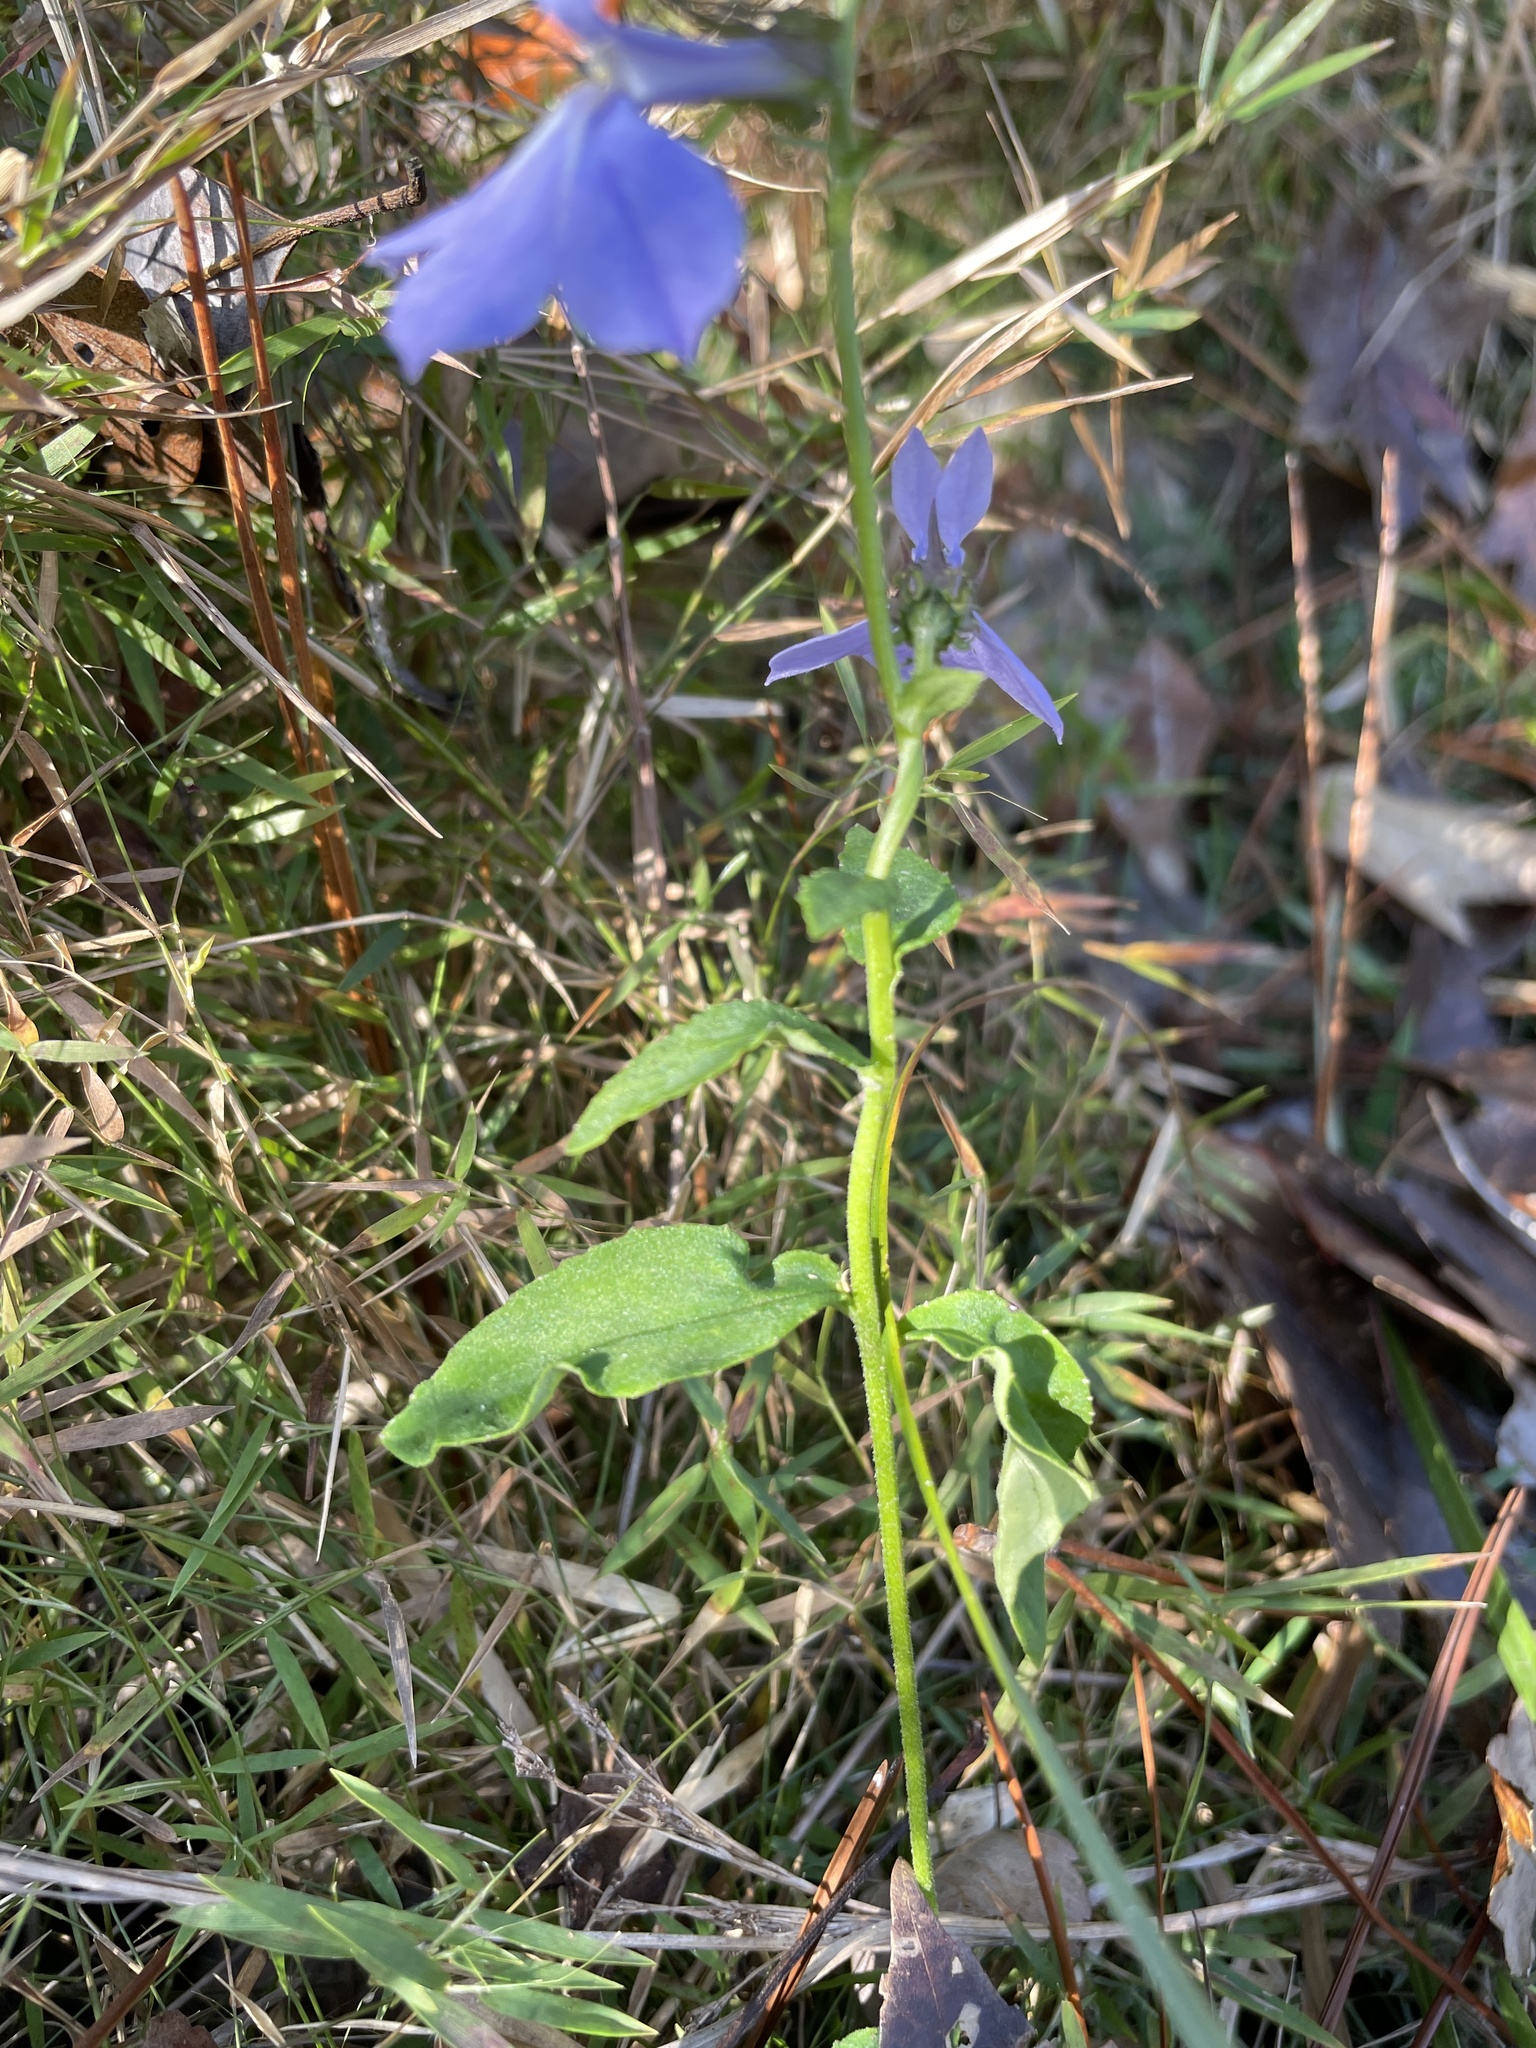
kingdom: Plantae
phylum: Tracheophyta
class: Magnoliopsida
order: Asterales
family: Campanulaceae
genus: Lobelia
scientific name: Lobelia rogersii
